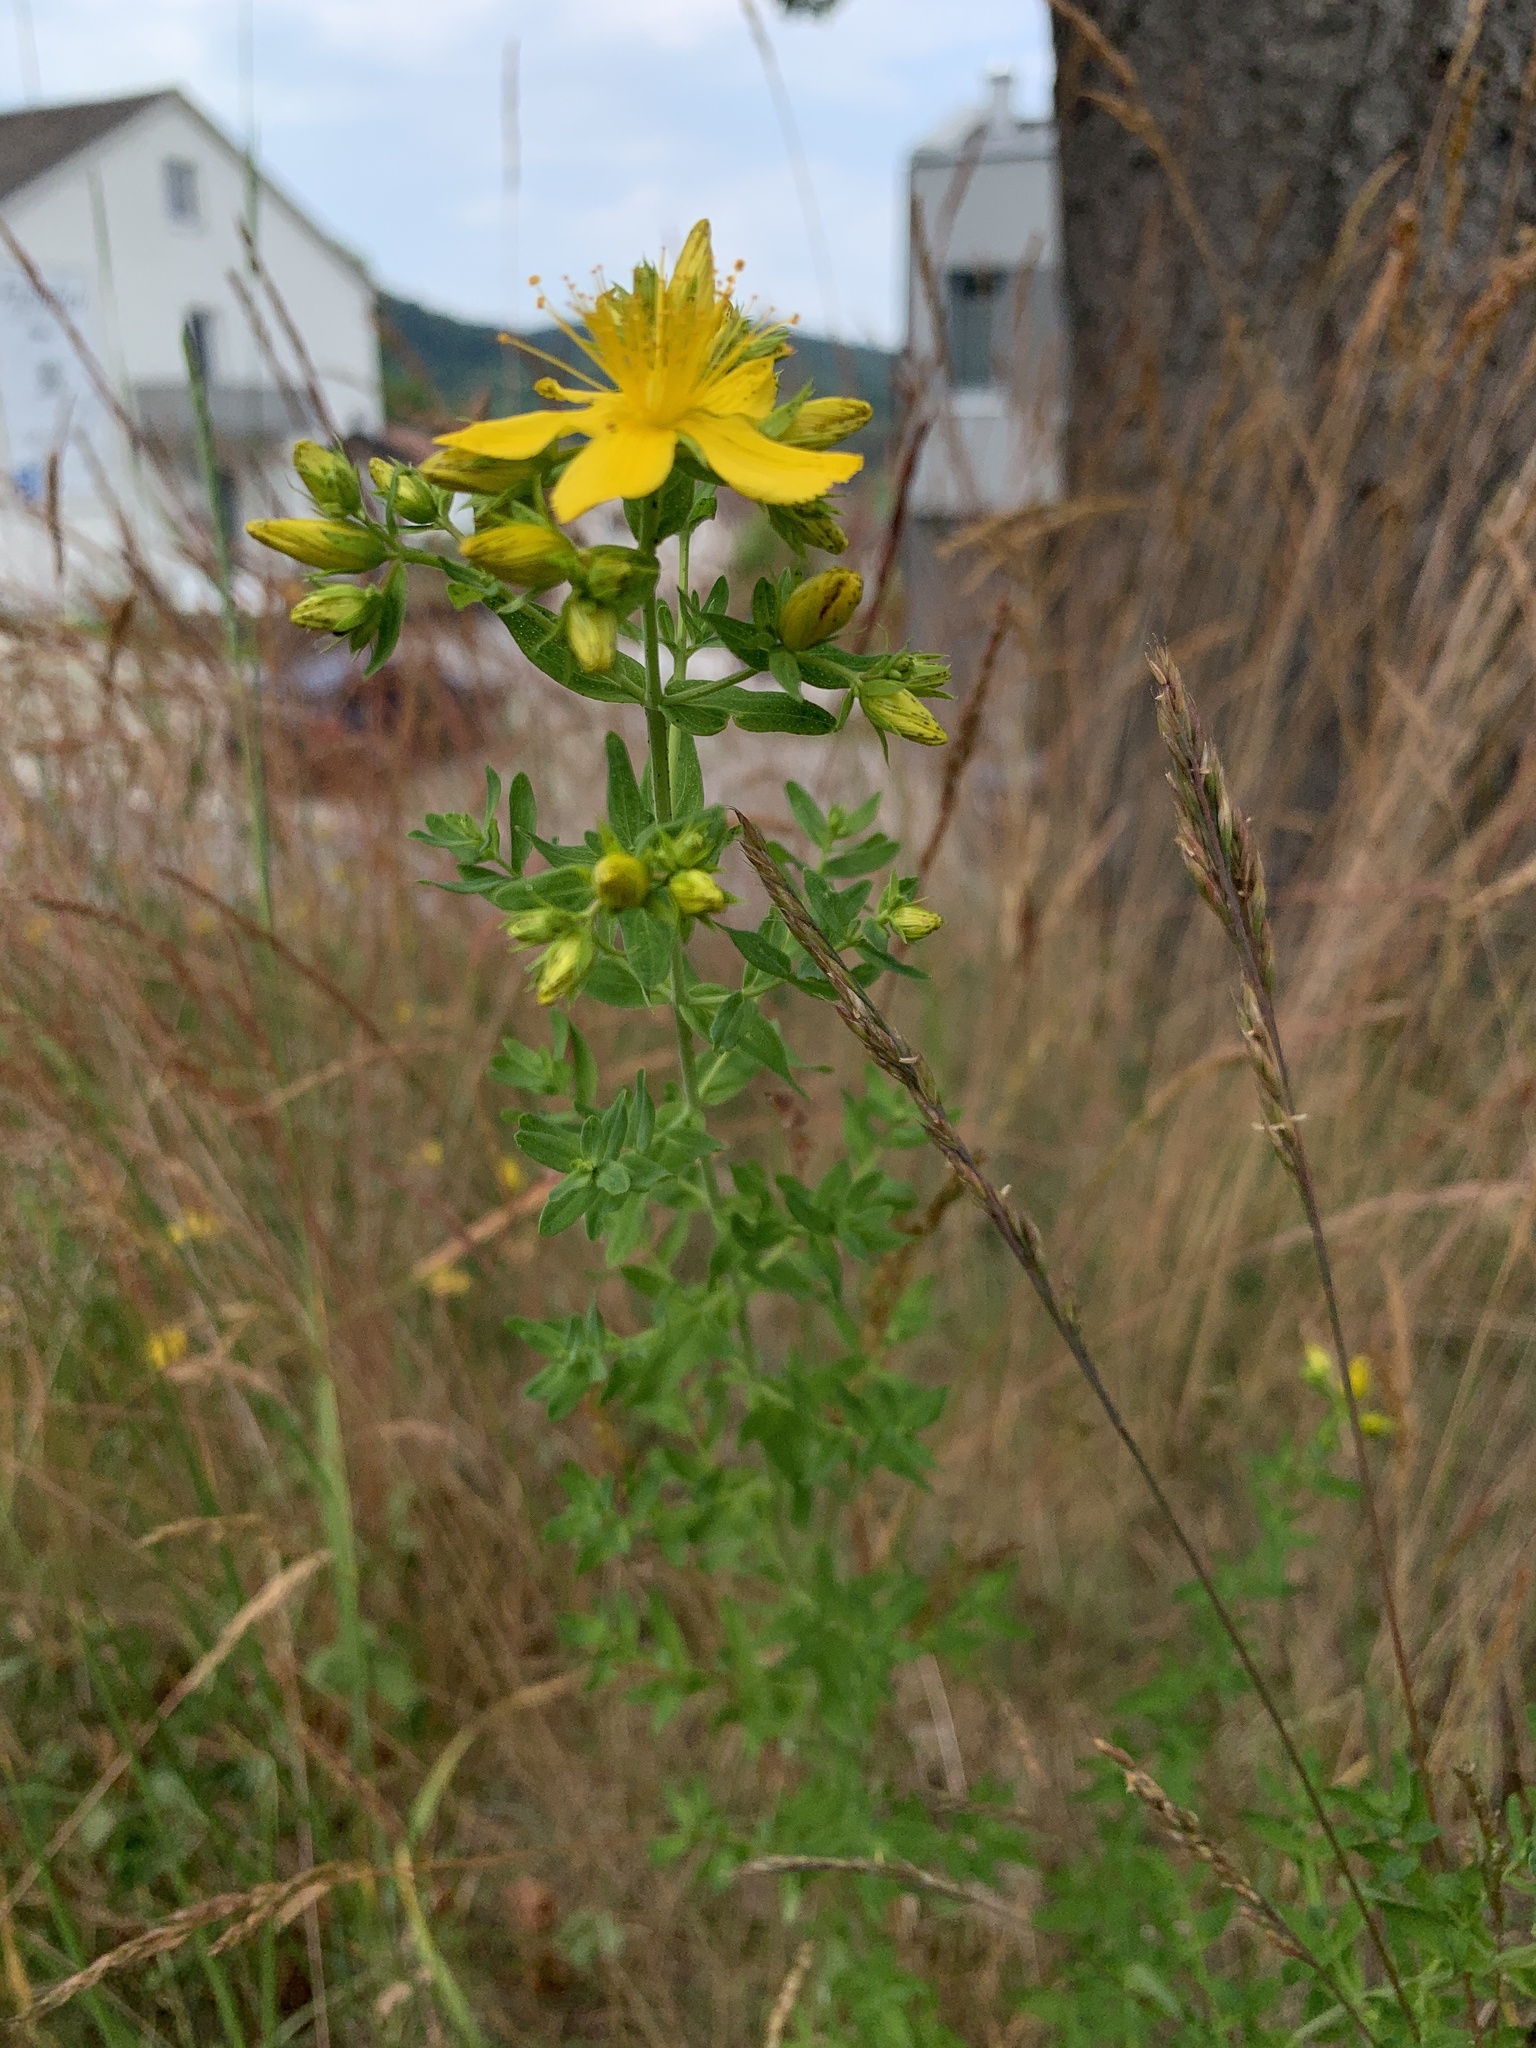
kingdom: Plantae
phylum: Tracheophyta
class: Magnoliopsida
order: Malpighiales
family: Hypericaceae
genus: Hypericum
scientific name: Hypericum perforatum
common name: Common st. johnswort
